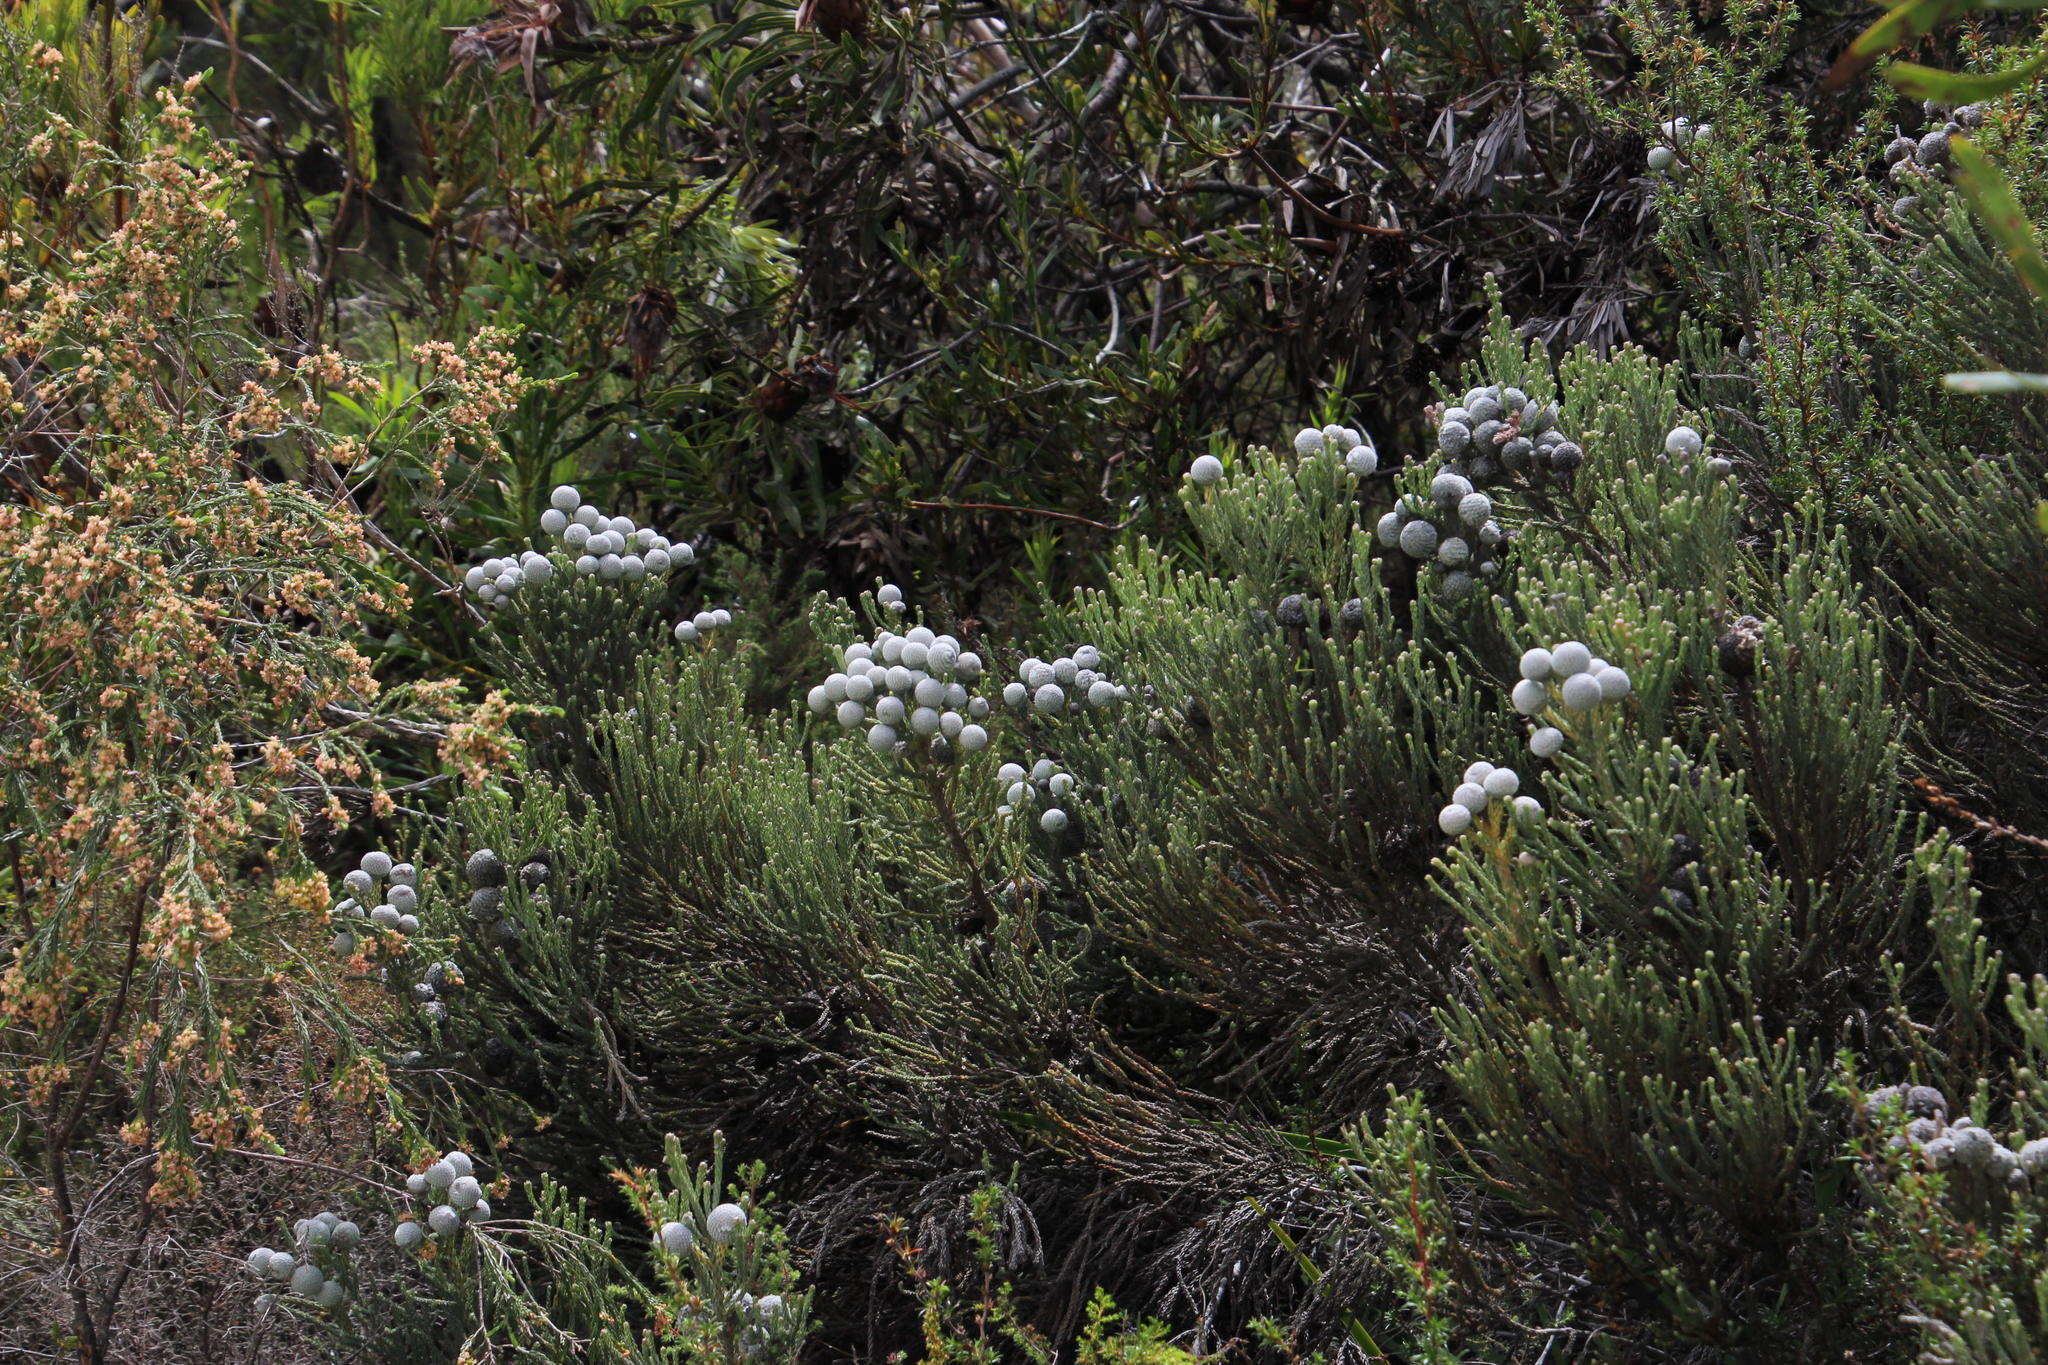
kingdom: Plantae
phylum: Tracheophyta
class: Magnoliopsida
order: Bruniales
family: Bruniaceae
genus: Brunia
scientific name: Brunia laevis
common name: Silver brunia
